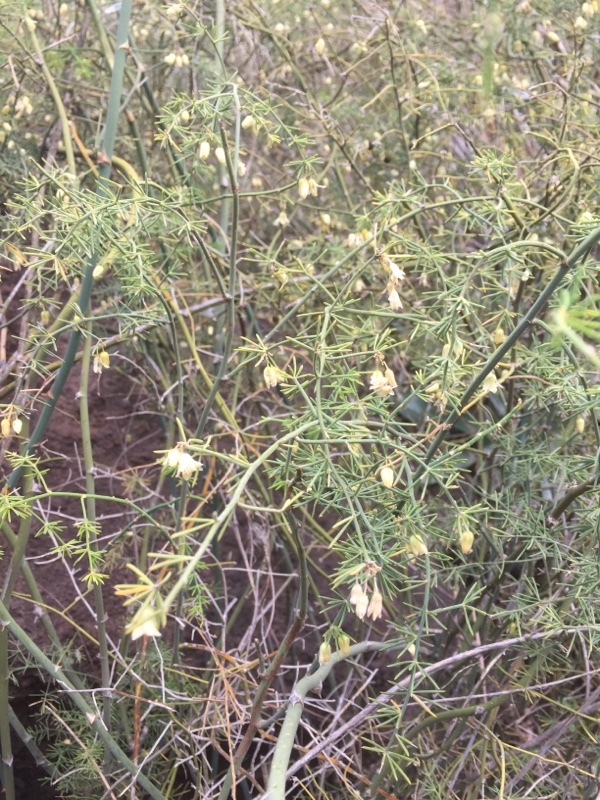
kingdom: Plantae
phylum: Tracheophyta
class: Liliopsida
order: Asparagales
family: Asparagaceae
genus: Asparagus
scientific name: Asparagus umbellatus
